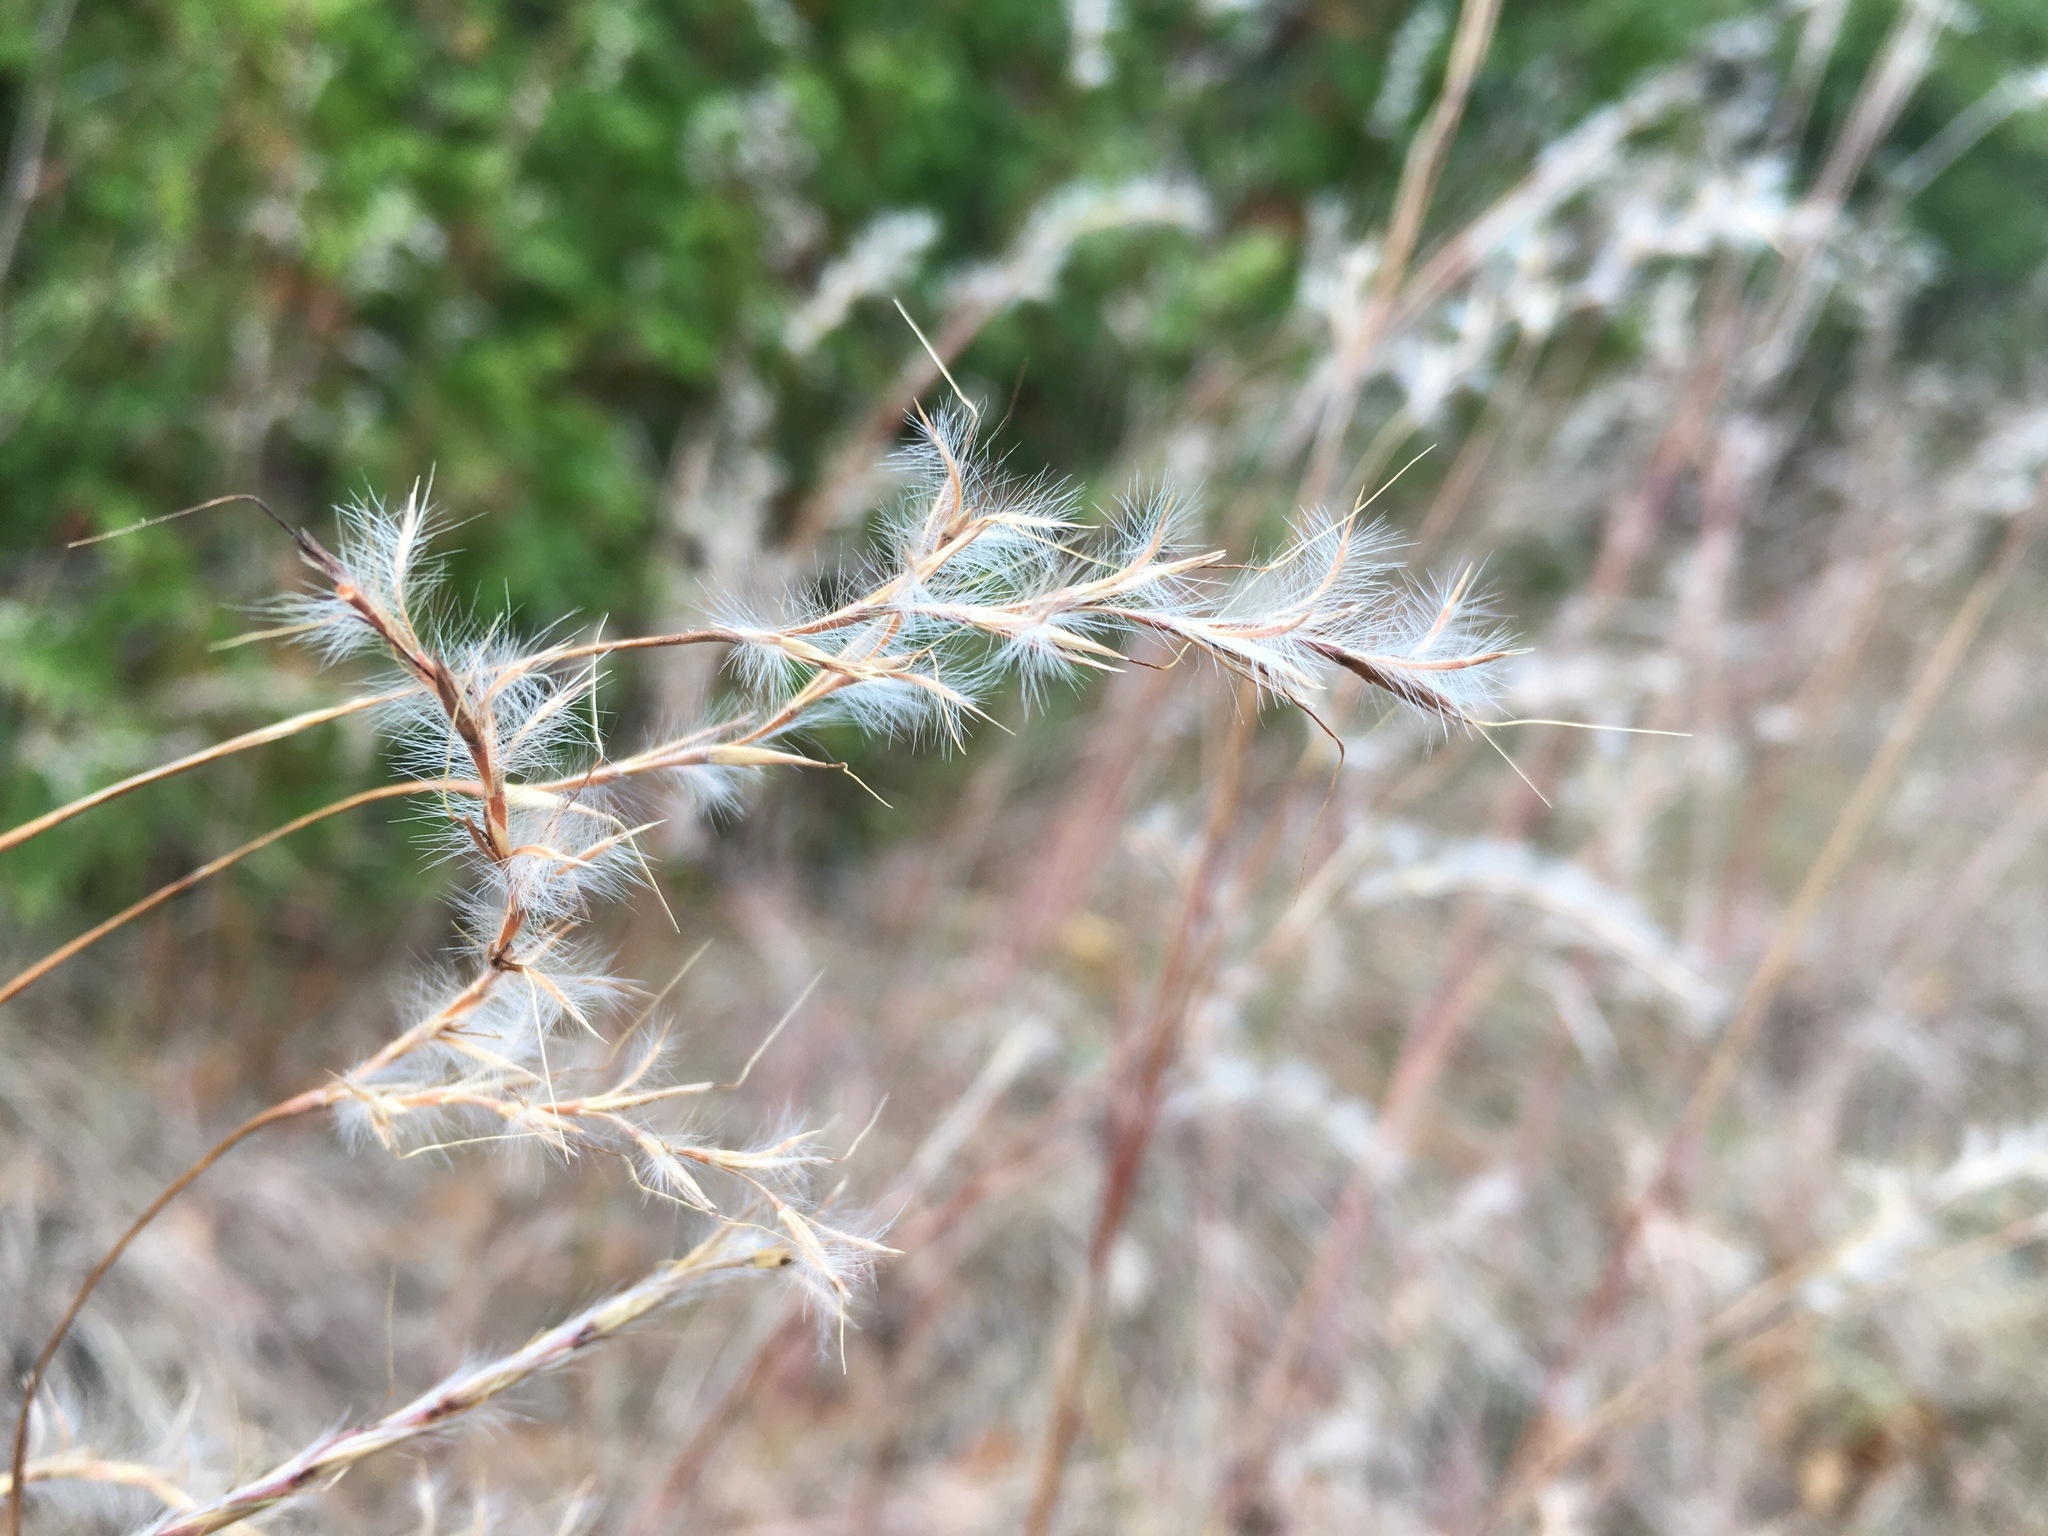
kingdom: Plantae
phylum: Tracheophyta
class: Liliopsida
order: Poales
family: Poaceae
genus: Schizachyrium
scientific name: Schizachyrium scoparium
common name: Little bluestem
